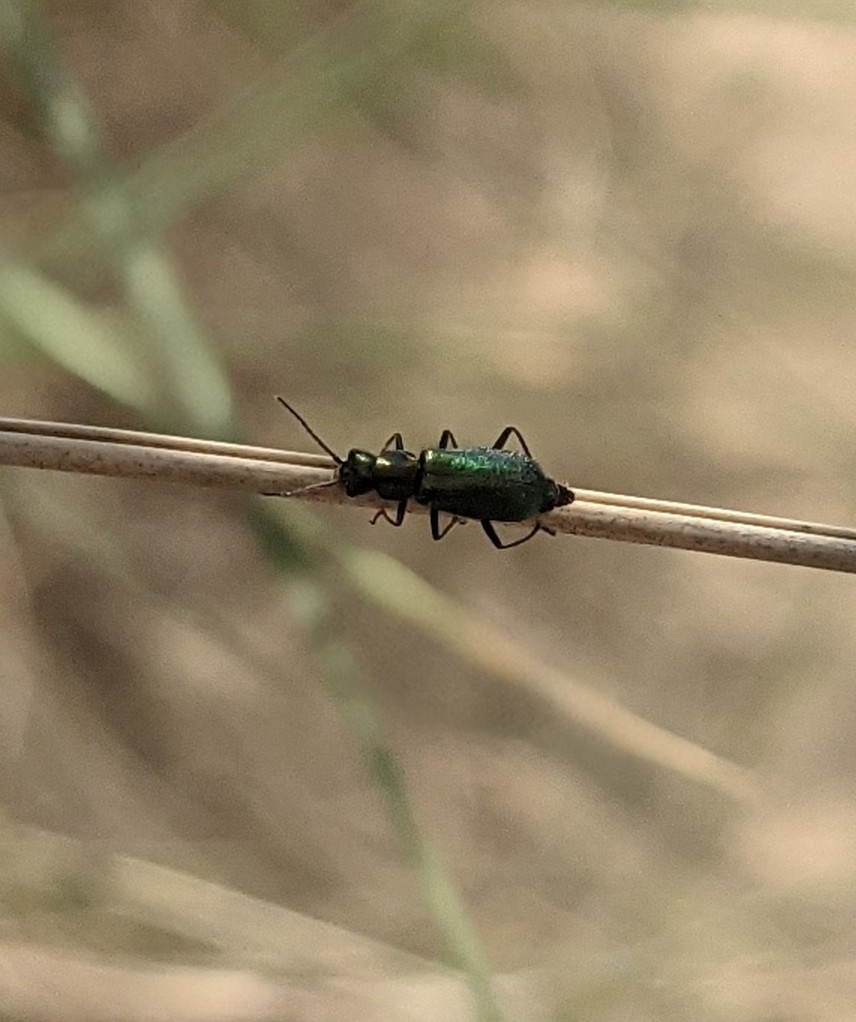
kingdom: Animalia
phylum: Arthropoda
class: Insecta
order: Coleoptera
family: Malachiidae
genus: Cordylepherus
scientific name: Cordylepherus viridis
